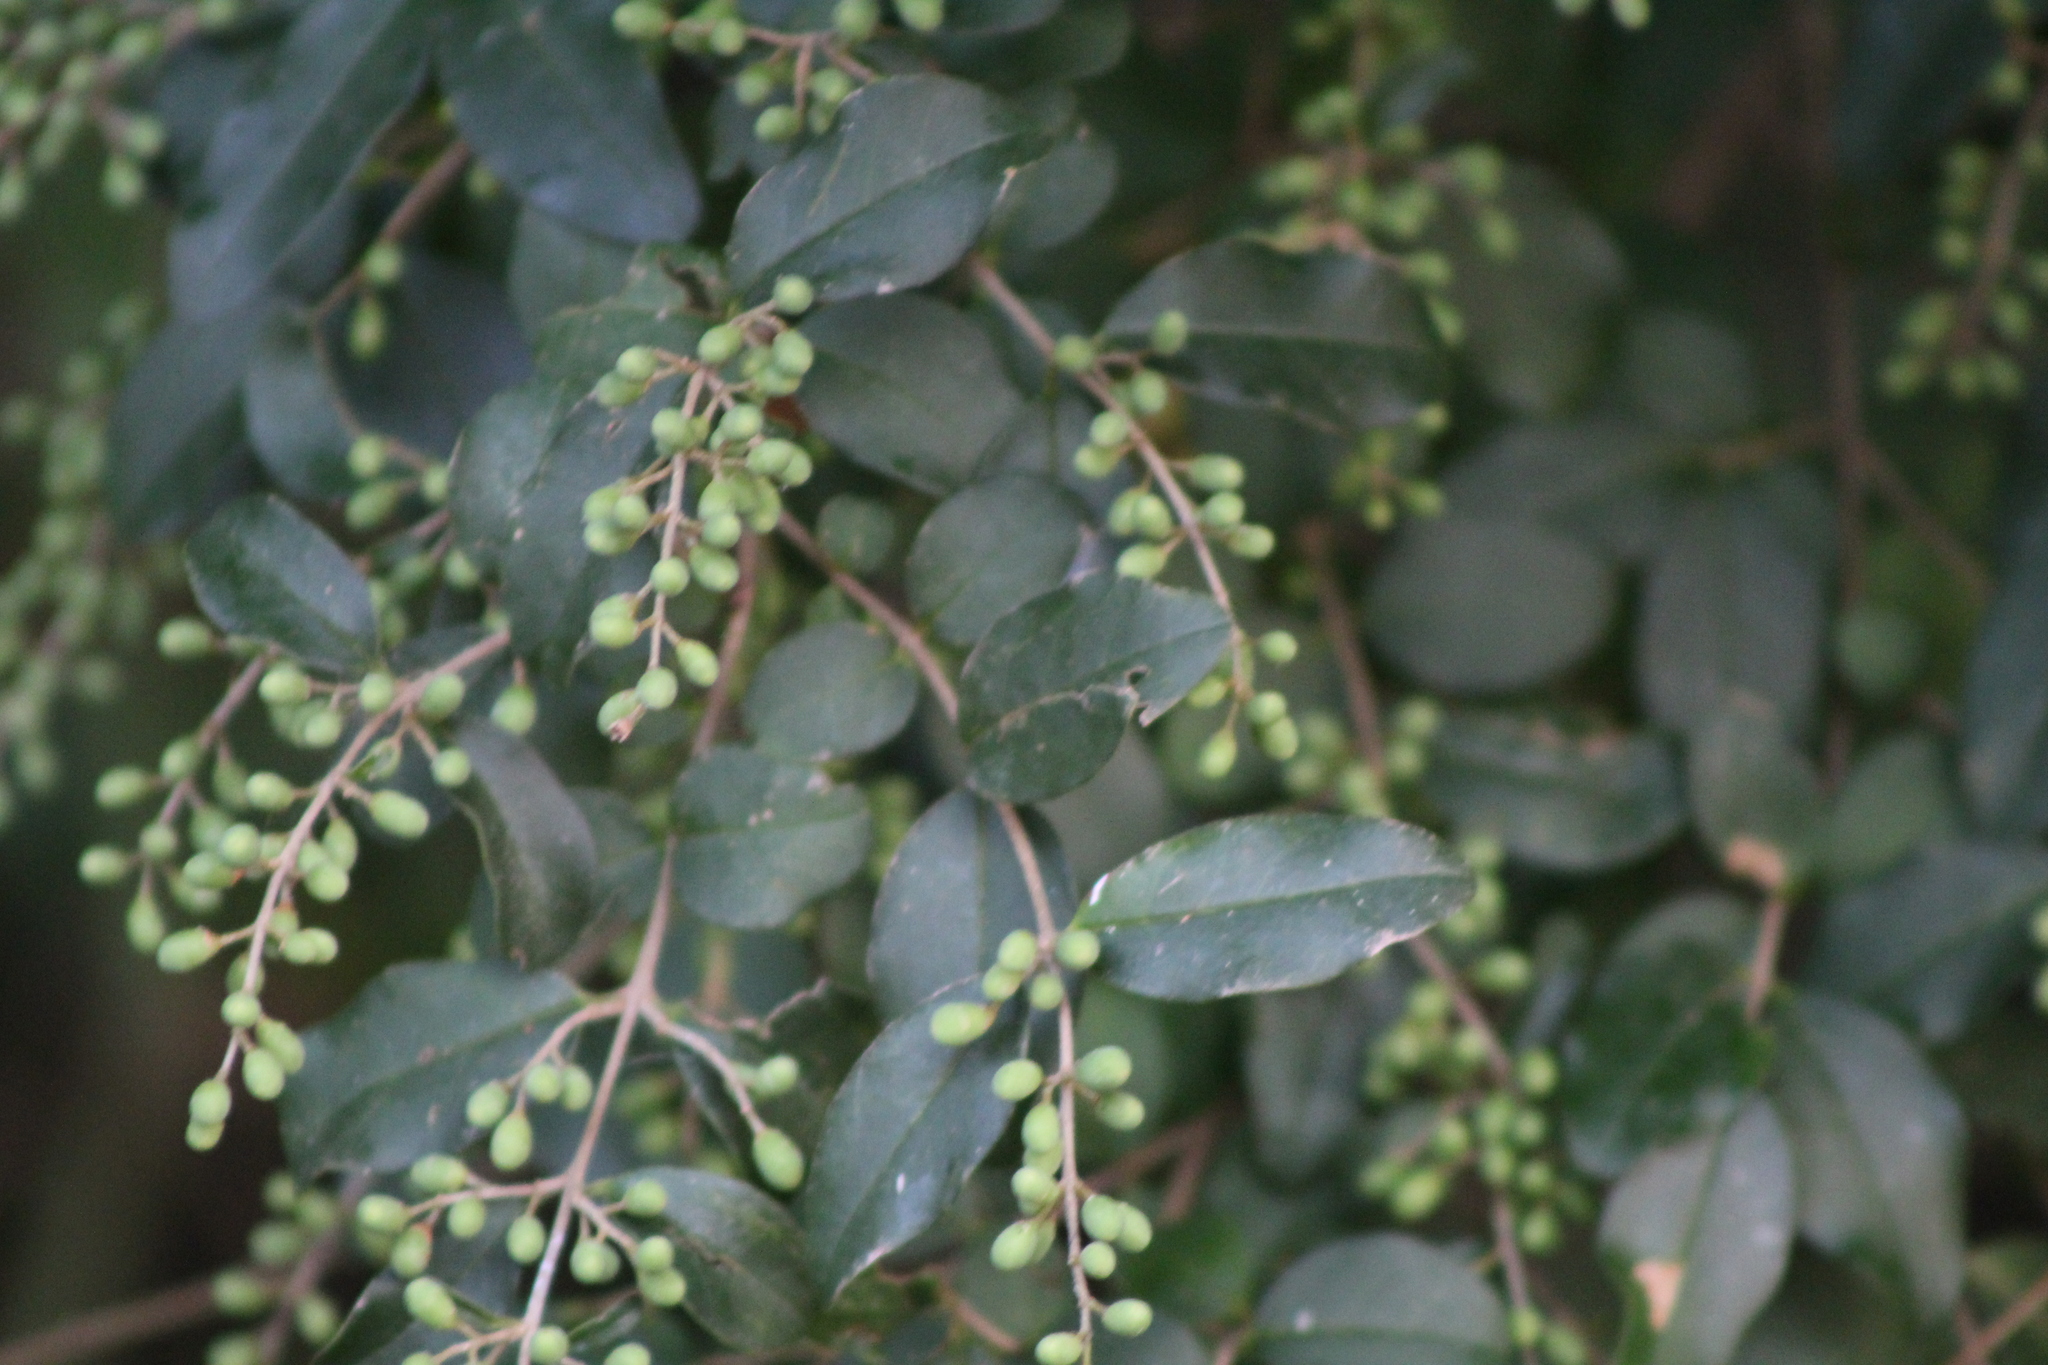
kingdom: Plantae
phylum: Tracheophyta
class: Magnoliopsida
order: Lamiales
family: Oleaceae
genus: Ligustrum
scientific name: Ligustrum sinense
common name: Chinese privet
